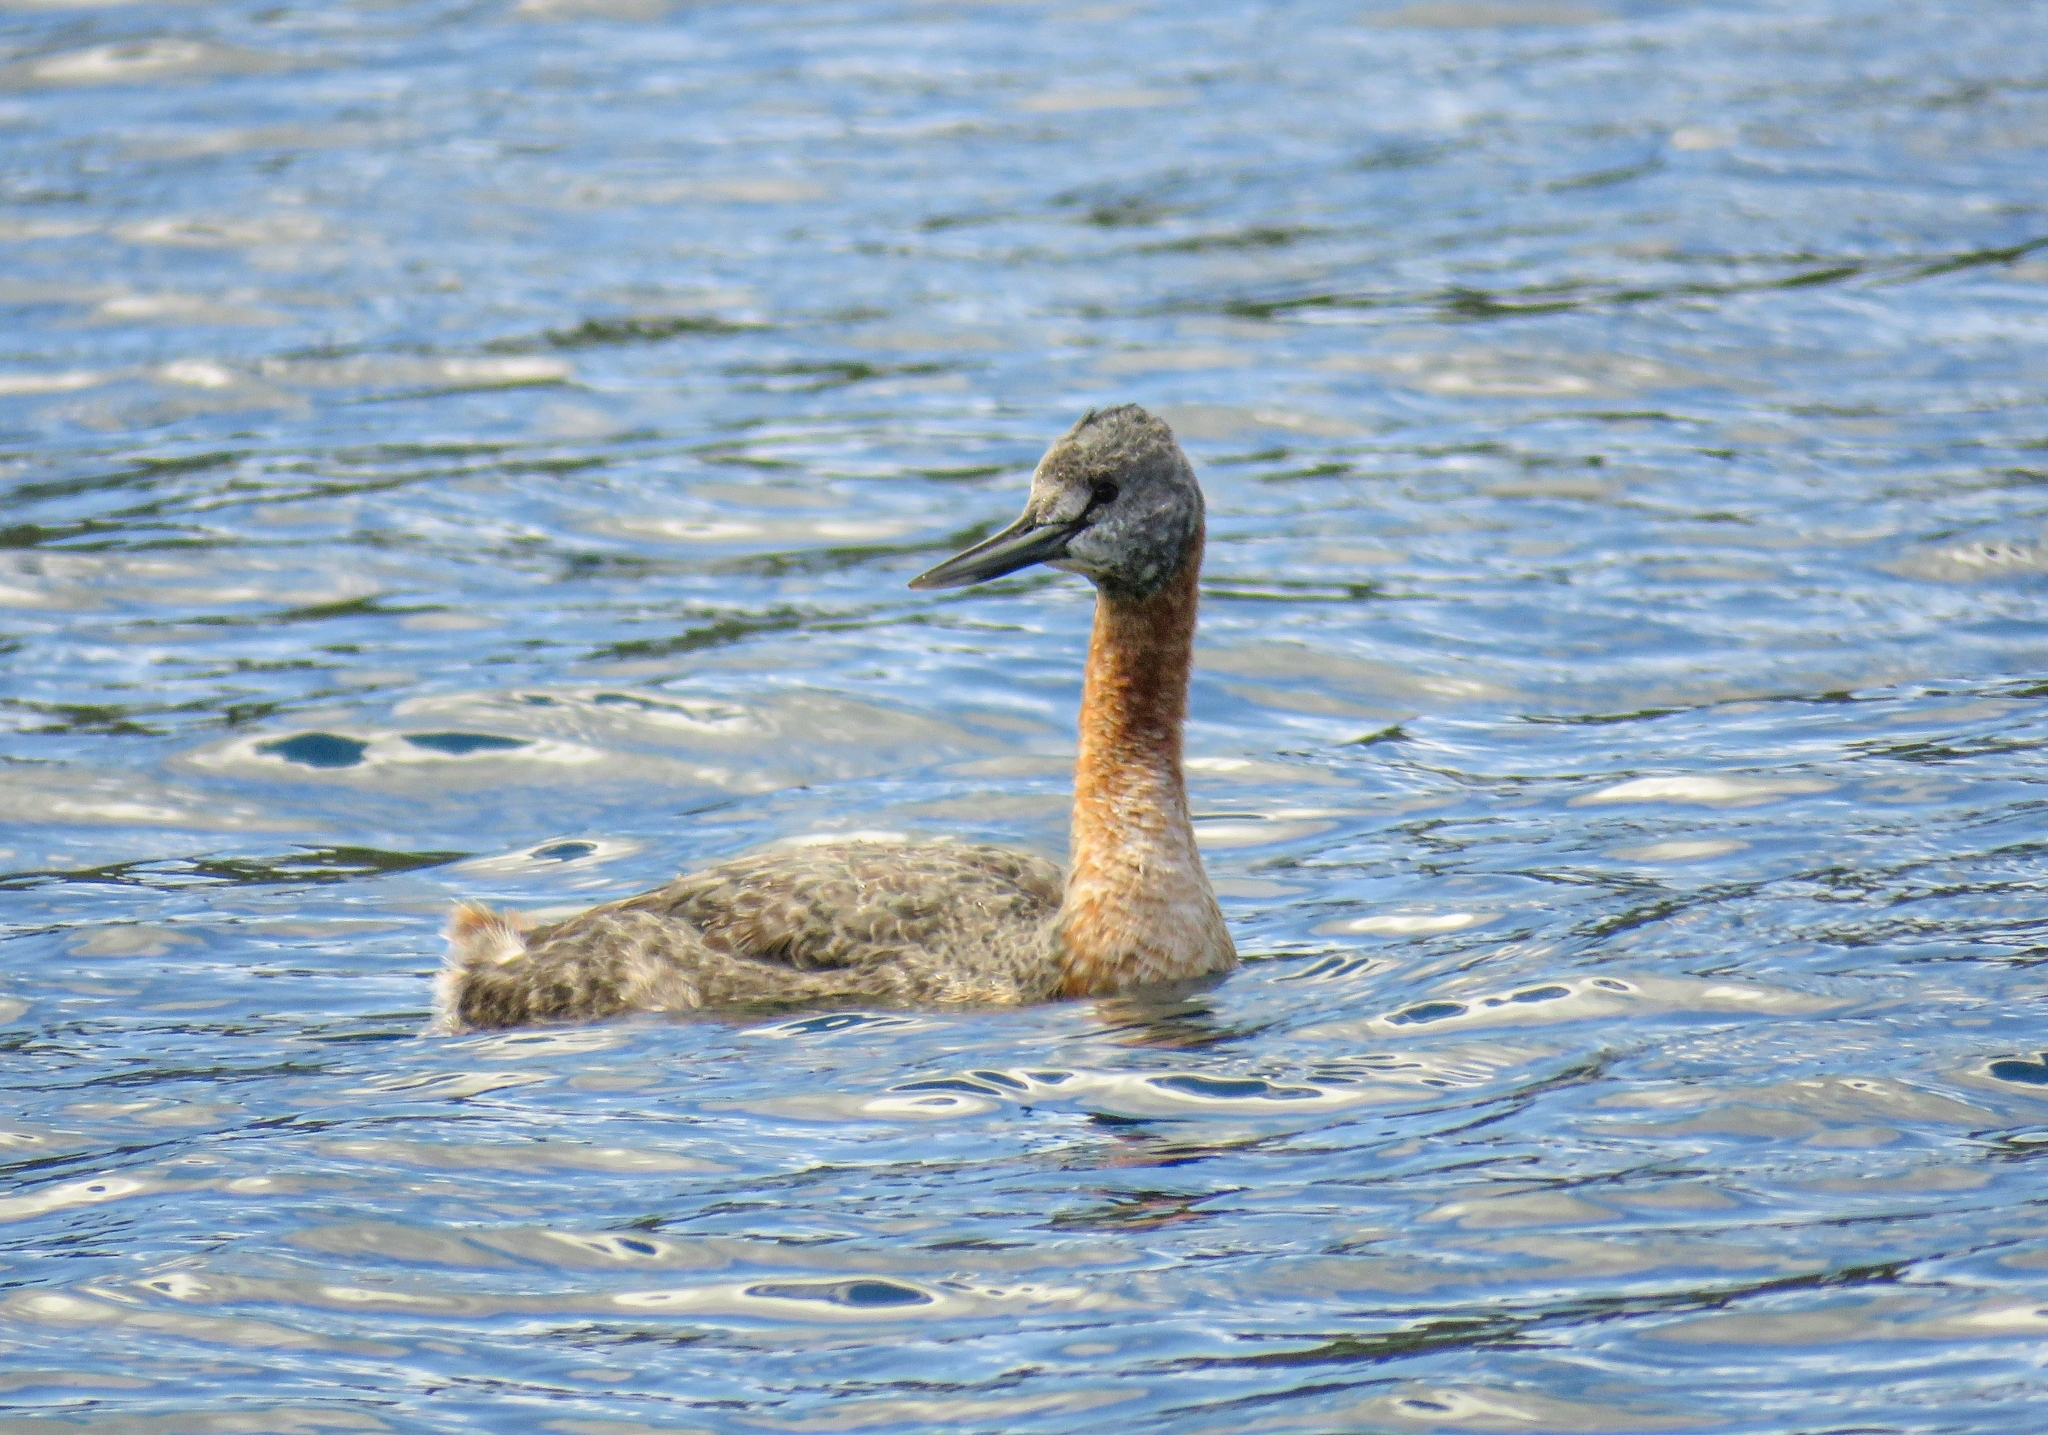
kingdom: Animalia
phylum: Chordata
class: Aves
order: Podicipediformes
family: Podicipedidae
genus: Podiceps
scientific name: Podiceps major
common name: Great grebe
